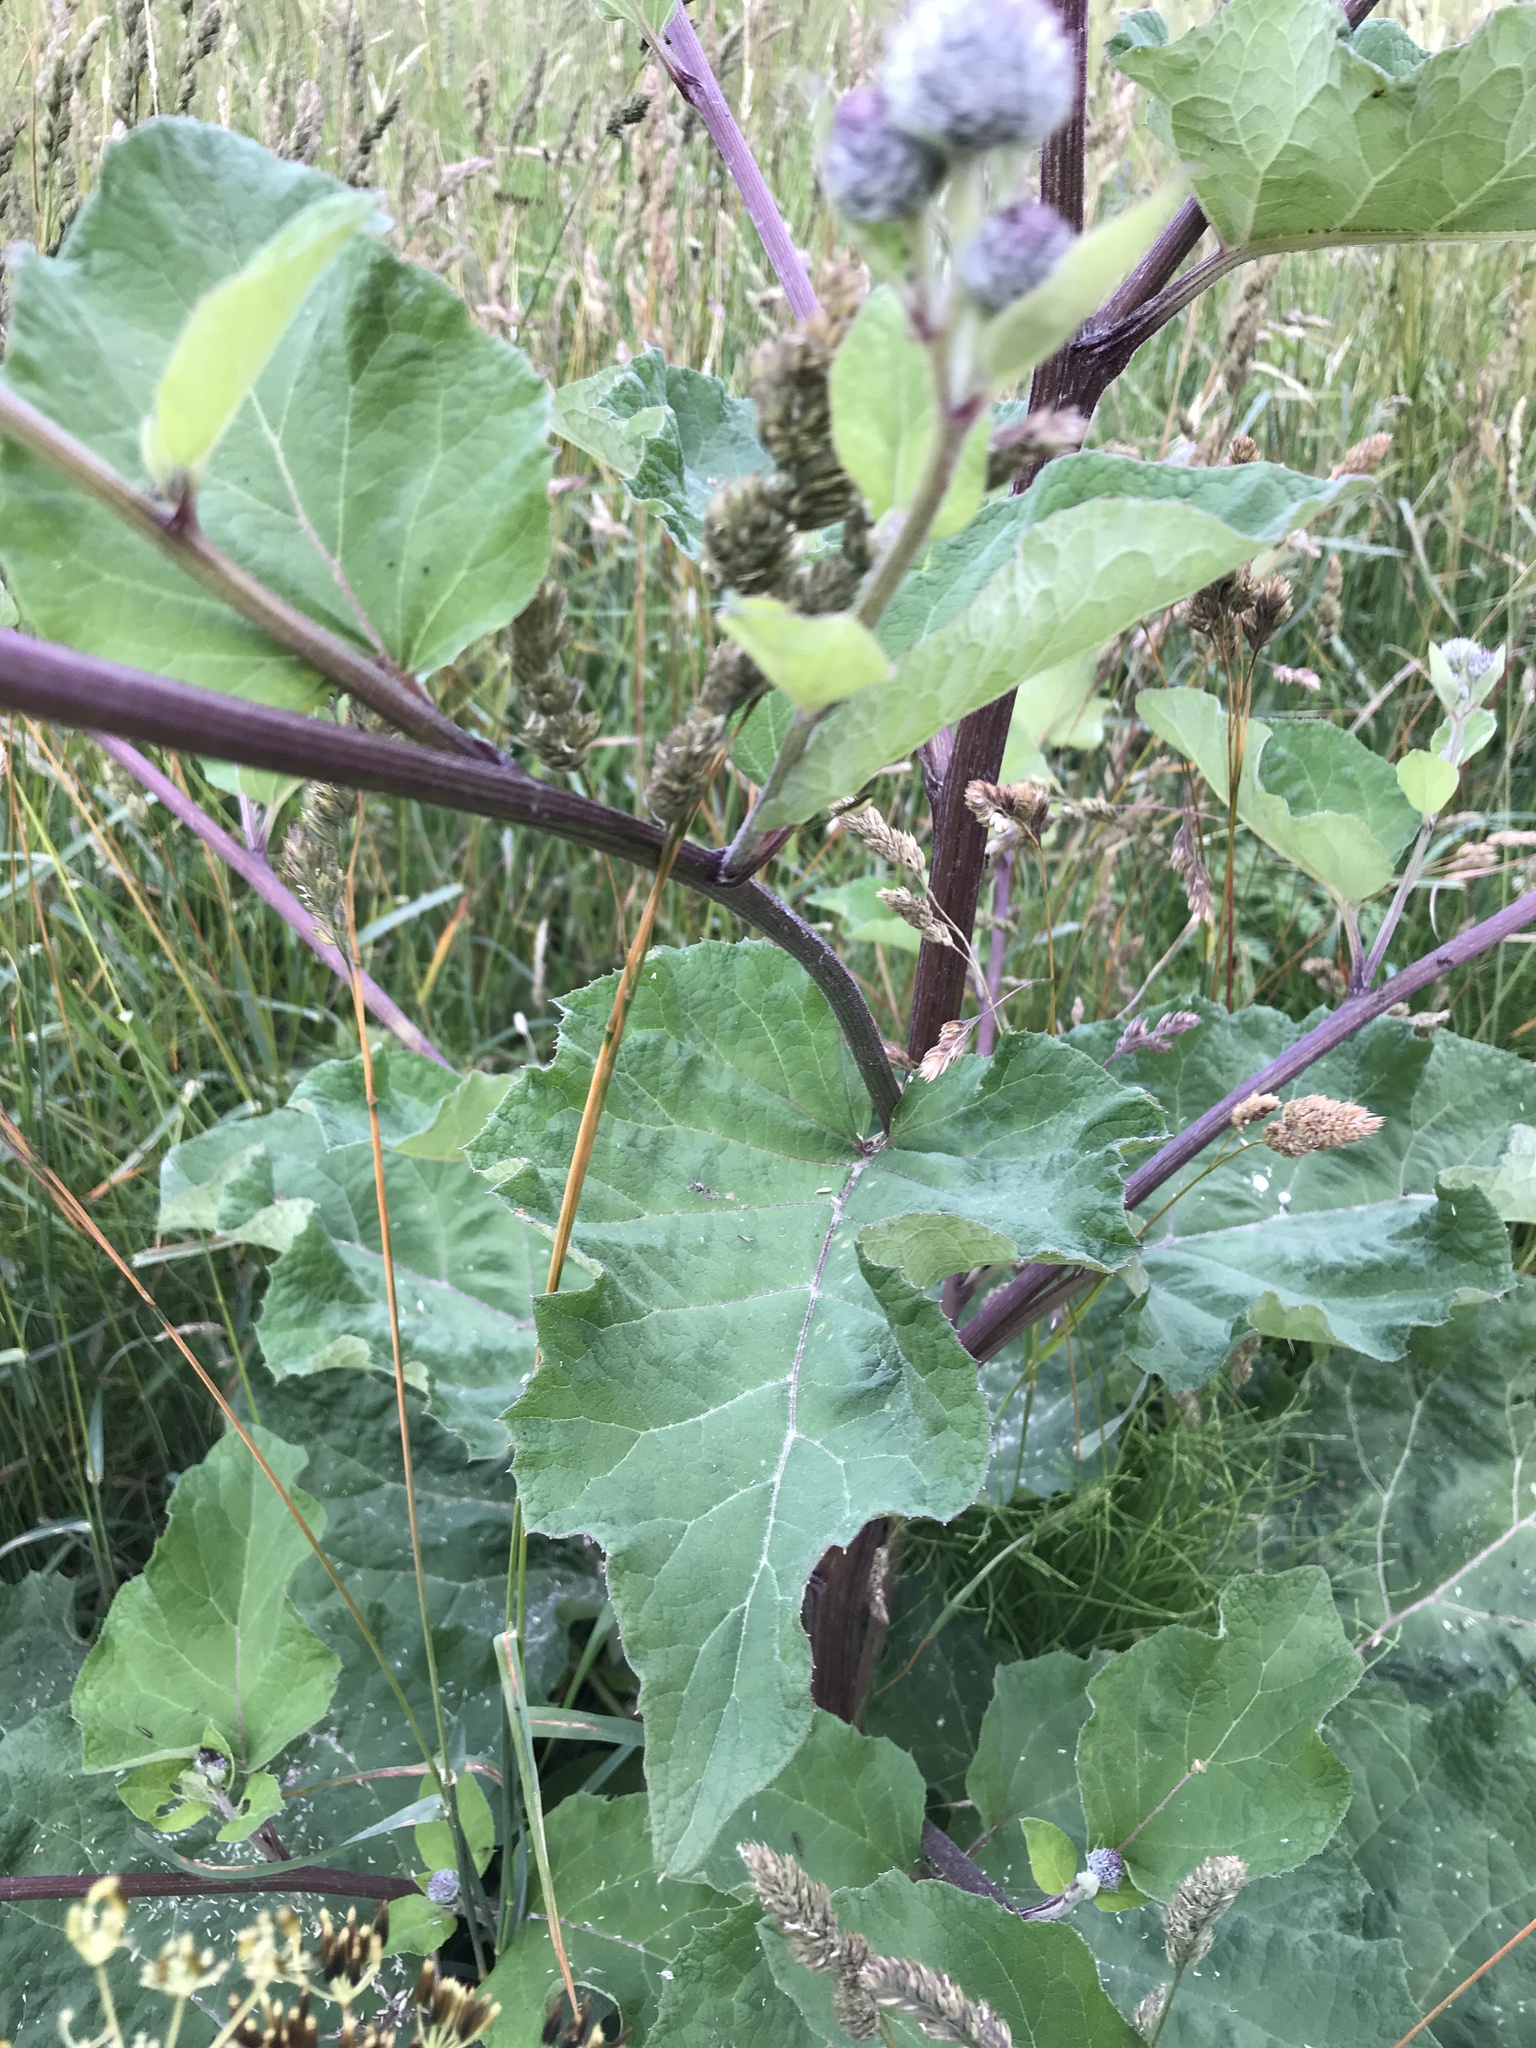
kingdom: Plantae
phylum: Tracheophyta
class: Magnoliopsida
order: Asterales
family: Asteraceae
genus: Arctium
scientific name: Arctium tomentosum
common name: Woolly burdock
